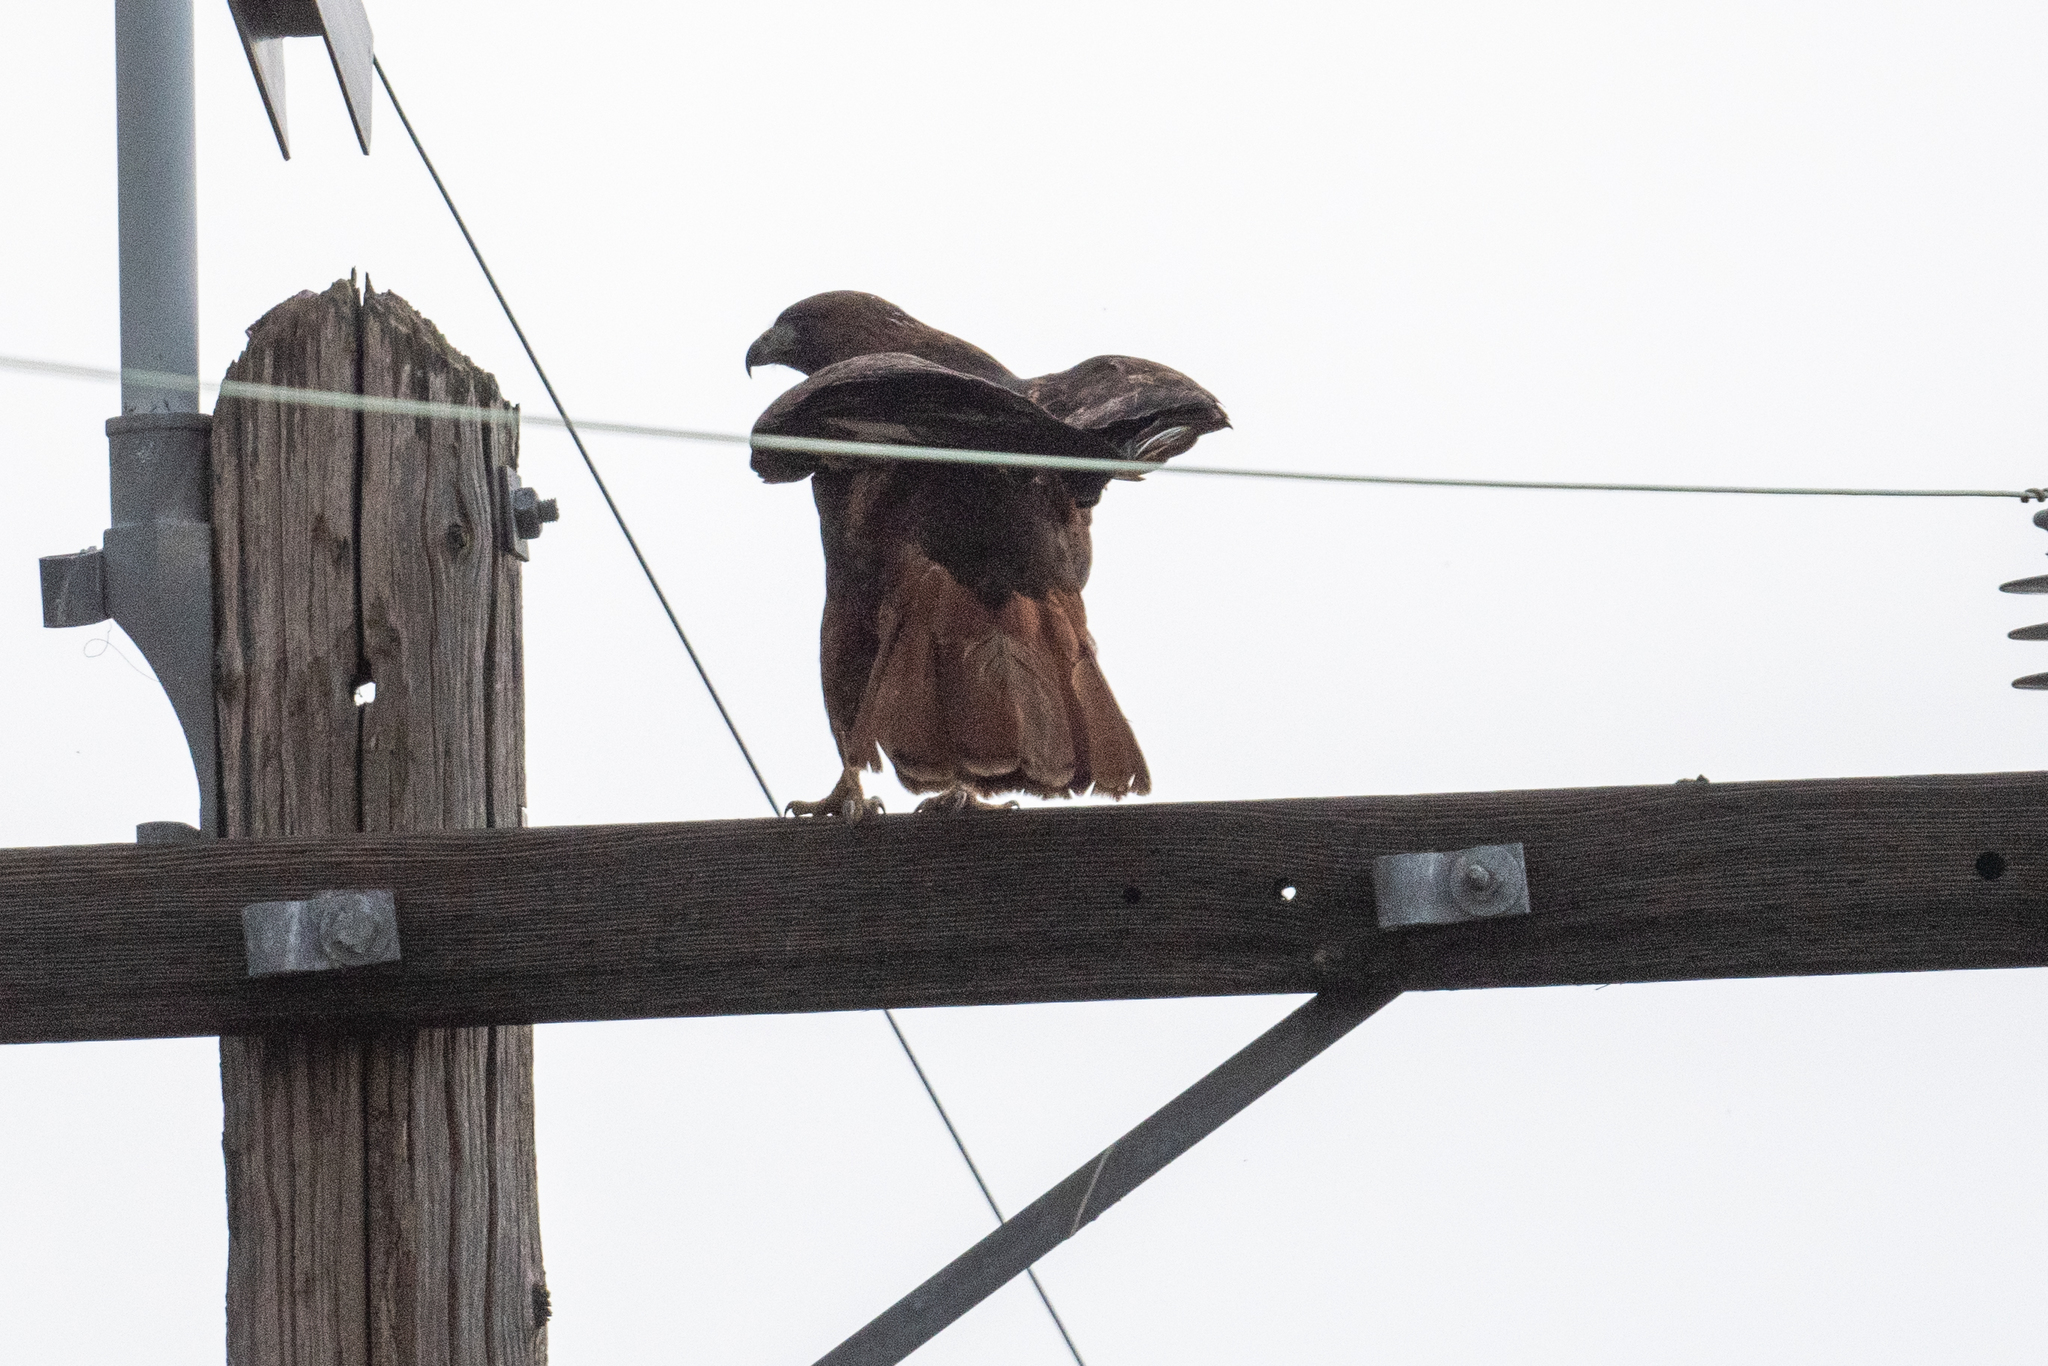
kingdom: Animalia
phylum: Chordata
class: Aves
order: Accipitriformes
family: Accipitridae
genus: Buteo
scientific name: Buteo jamaicensis
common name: Red-tailed hawk
